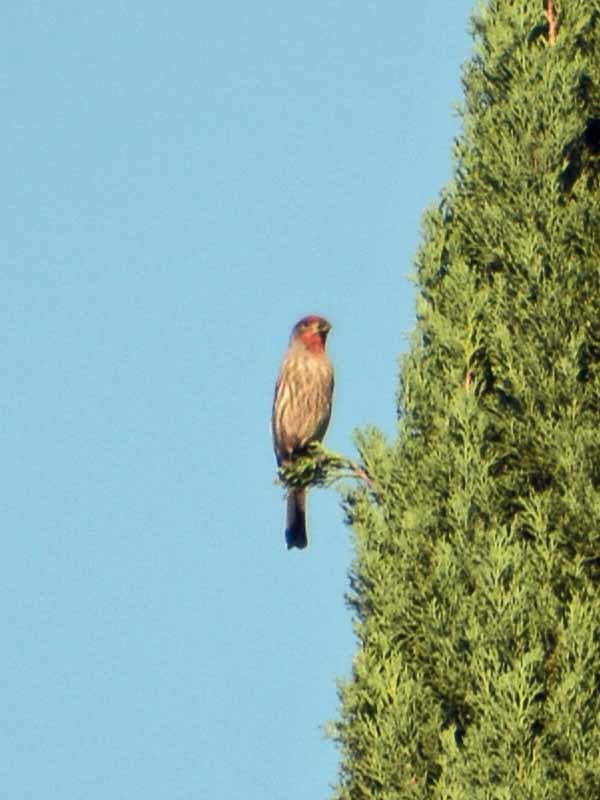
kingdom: Animalia
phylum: Chordata
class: Aves
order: Passeriformes
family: Fringillidae
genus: Haemorhous
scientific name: Haemorhous mexicanus
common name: House finch
